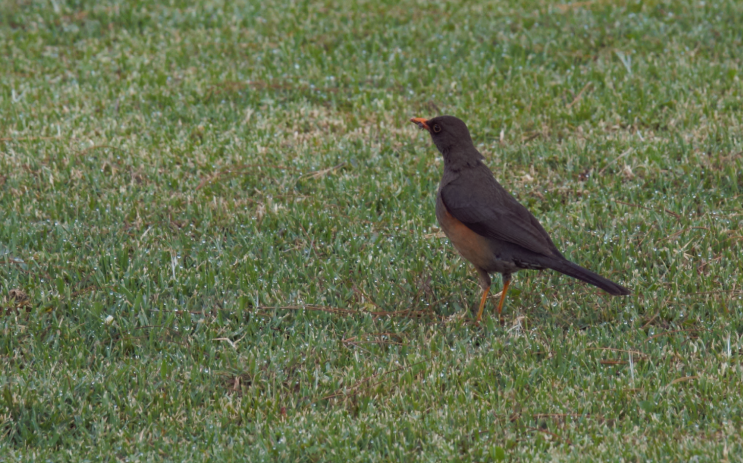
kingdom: Animalia
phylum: Chordata
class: Aves
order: Passeriformes
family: Turdidae
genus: Turdus
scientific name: Turdus abyssinicus
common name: Abyssinian thrush
